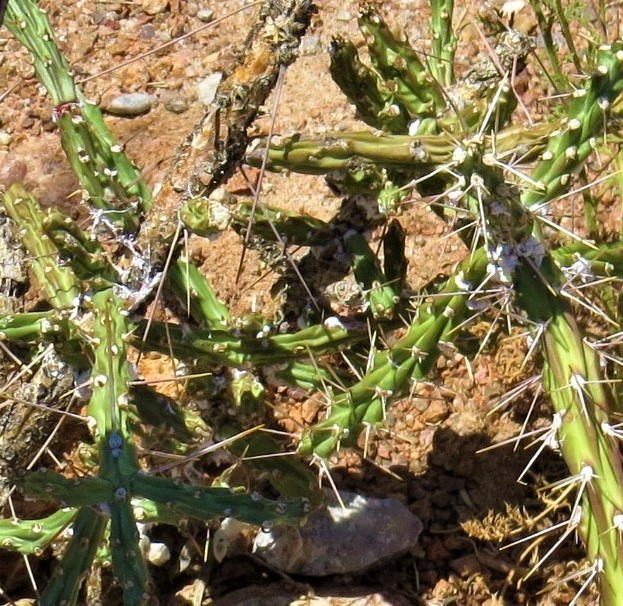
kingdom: Plantae
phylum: Tracheophyta
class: Magnoliopsida
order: Caryophyllales
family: Cactaceae
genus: Cylindropuntia
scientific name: Cylindropuntia kleiniae
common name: Klein's cholla
